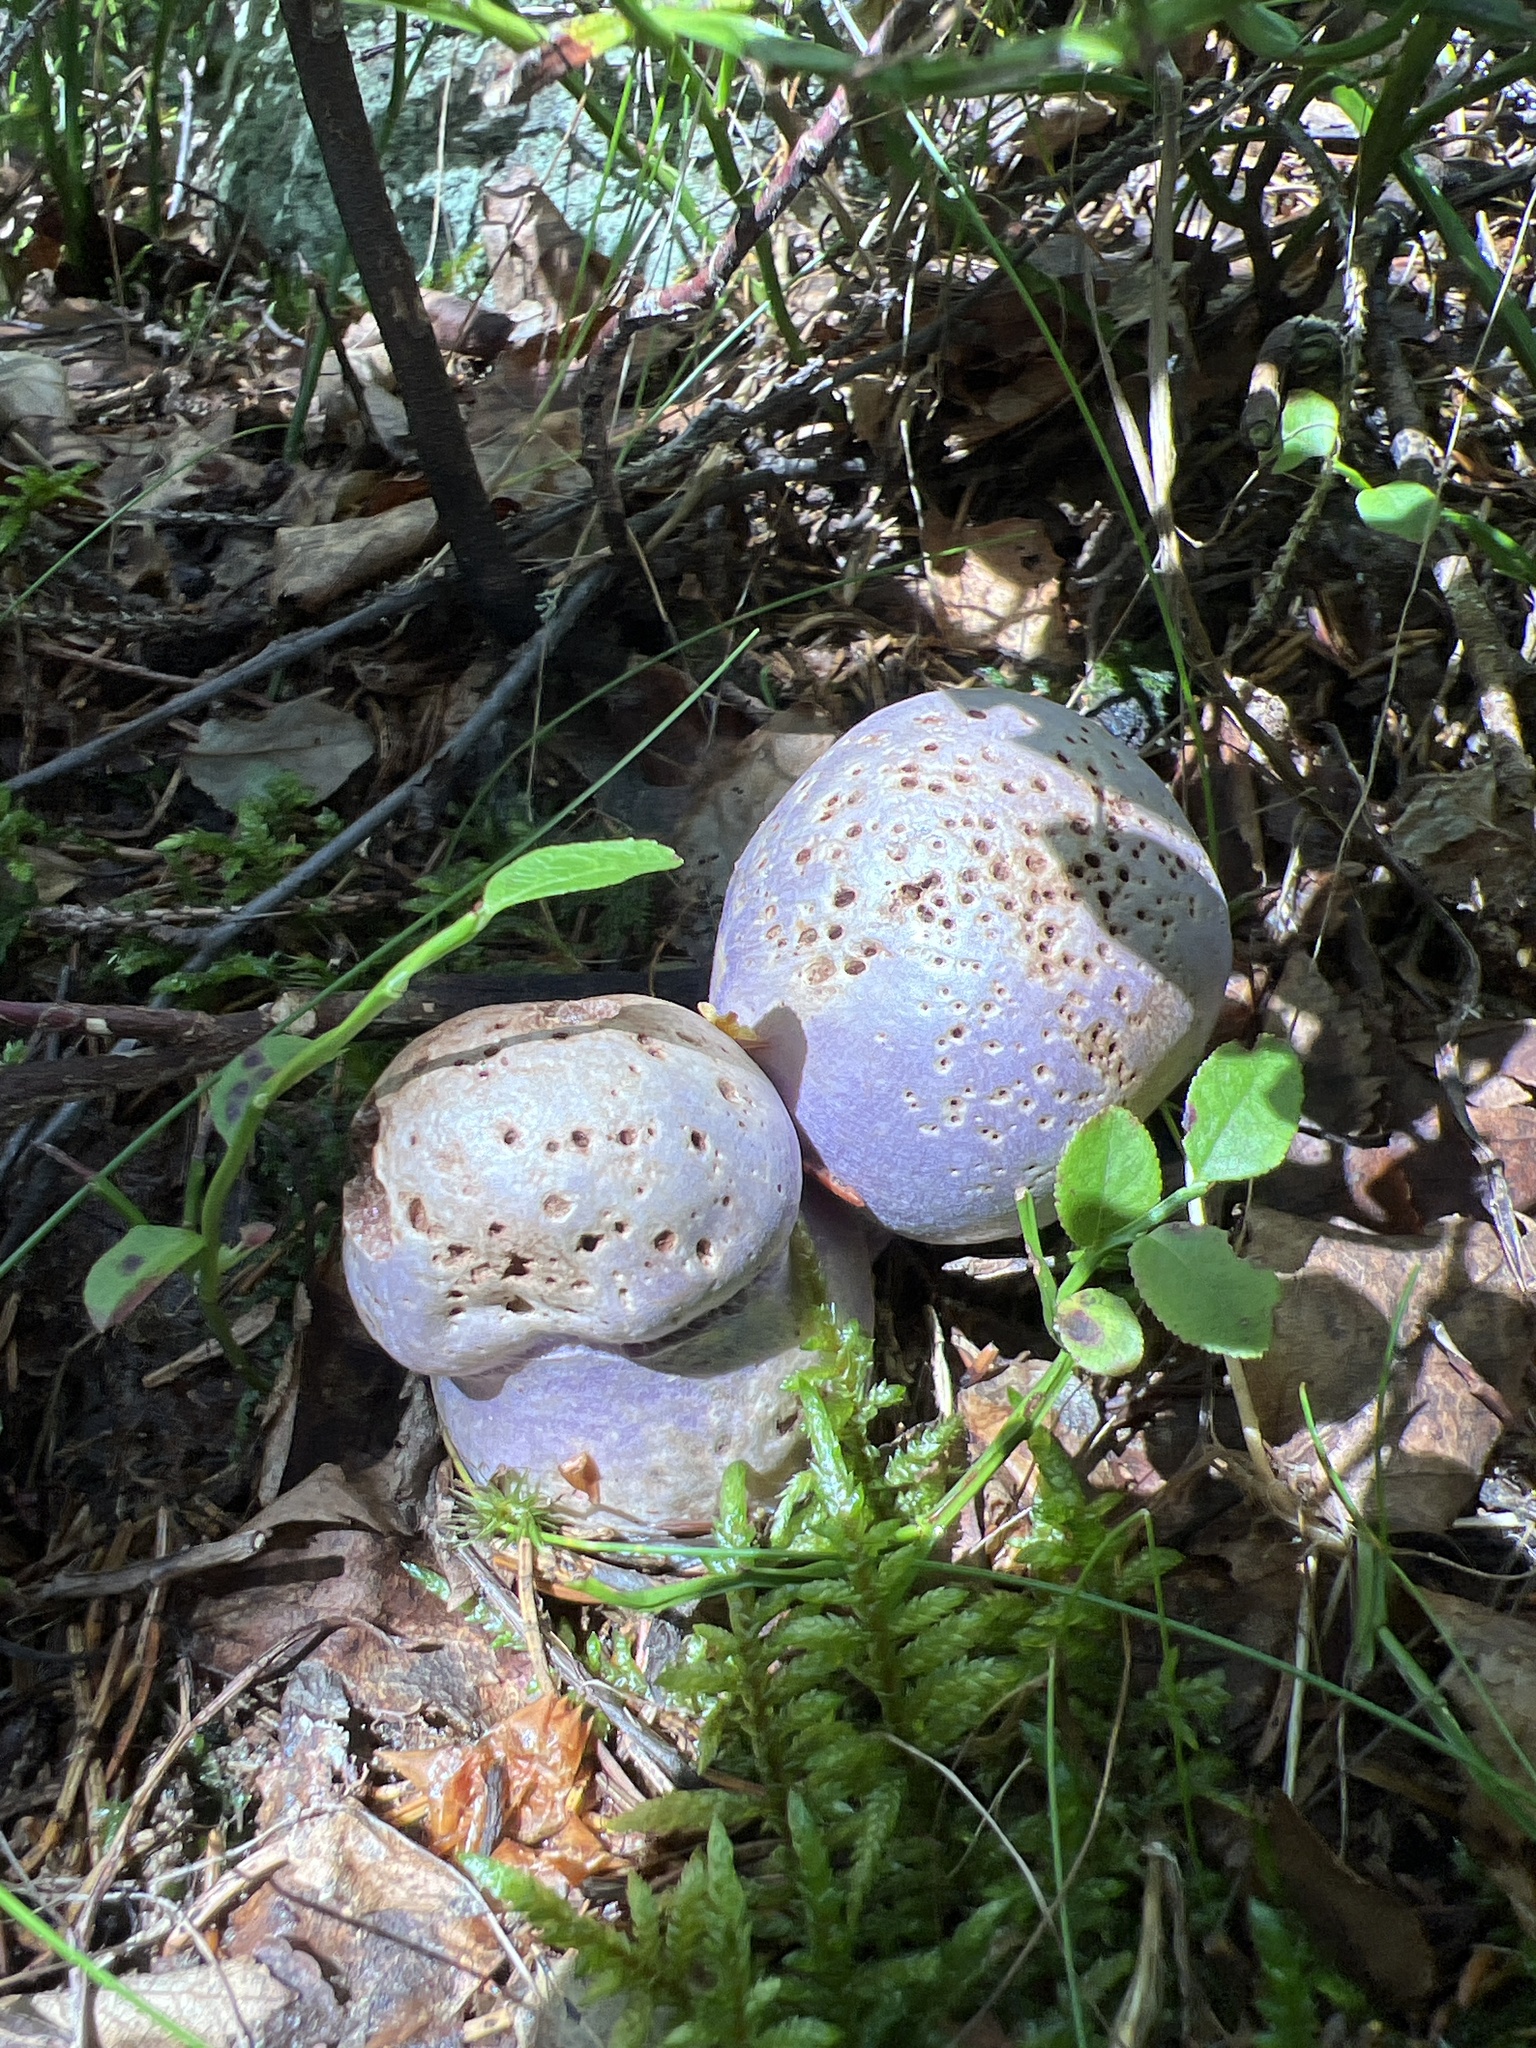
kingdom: Fungi
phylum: Basidiomycota
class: Agaricomycetes
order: Agaricales
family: Cortinariaceae
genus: Cortinarius
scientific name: Cortinarius traganus
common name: Gassy webcap
